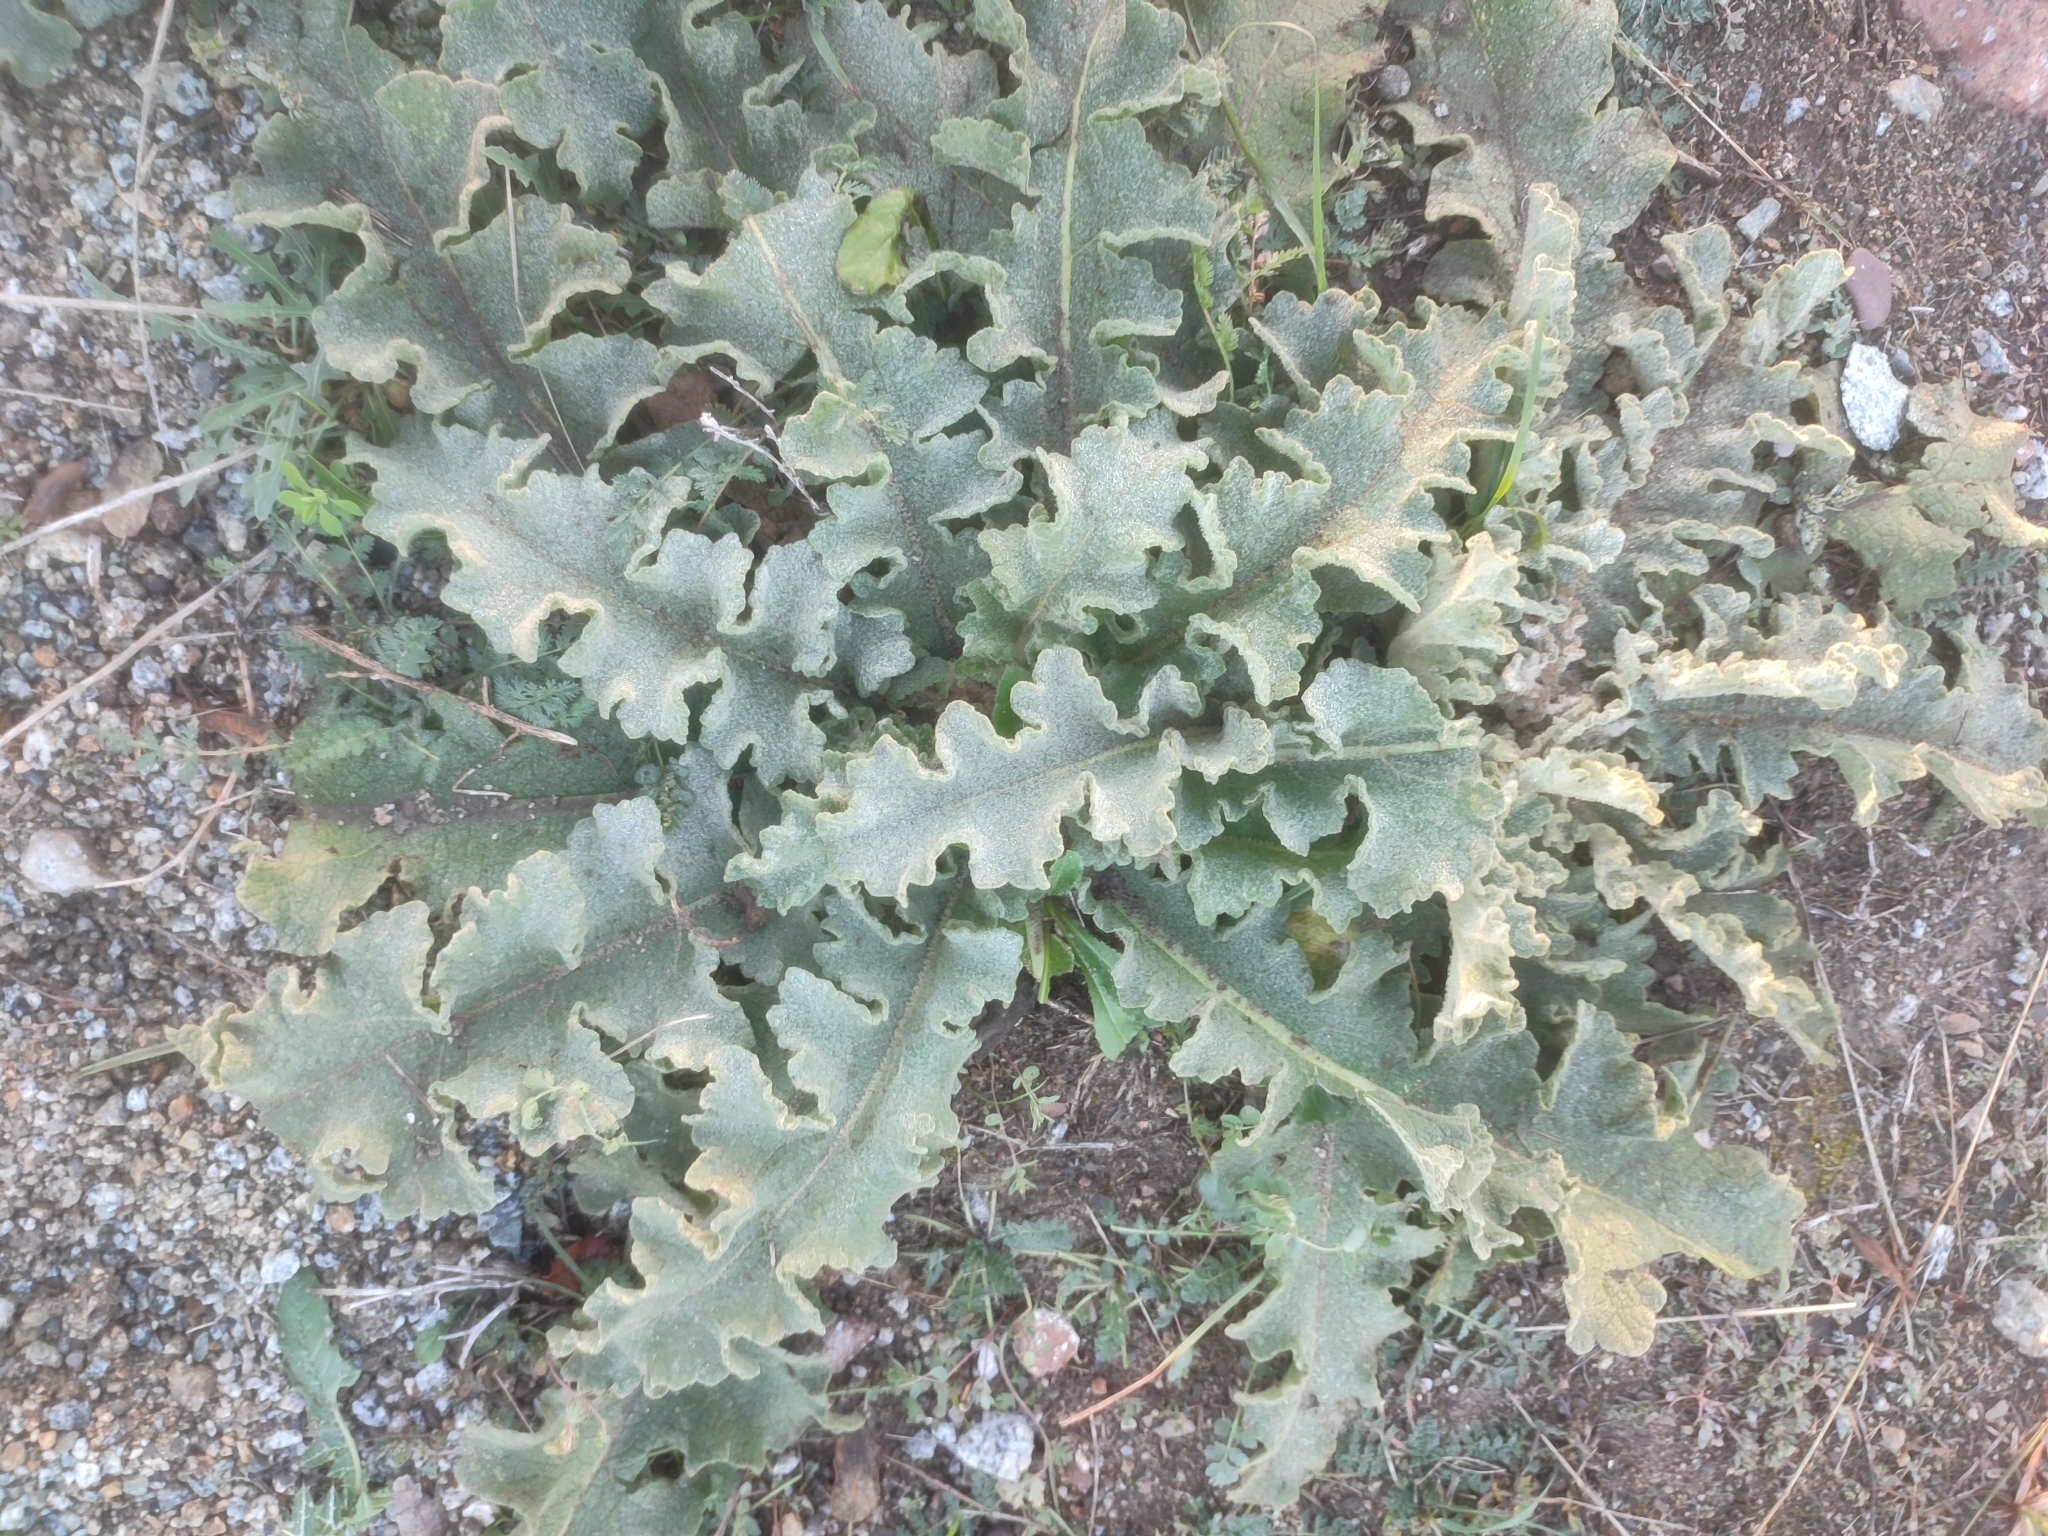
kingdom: Plantae
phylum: Tracheophyta
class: Magnoliopsida
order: Lamiales
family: Scrophulariaceae
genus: Verbascum
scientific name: Verbascum sinuatum
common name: Wavyleaf mullein
